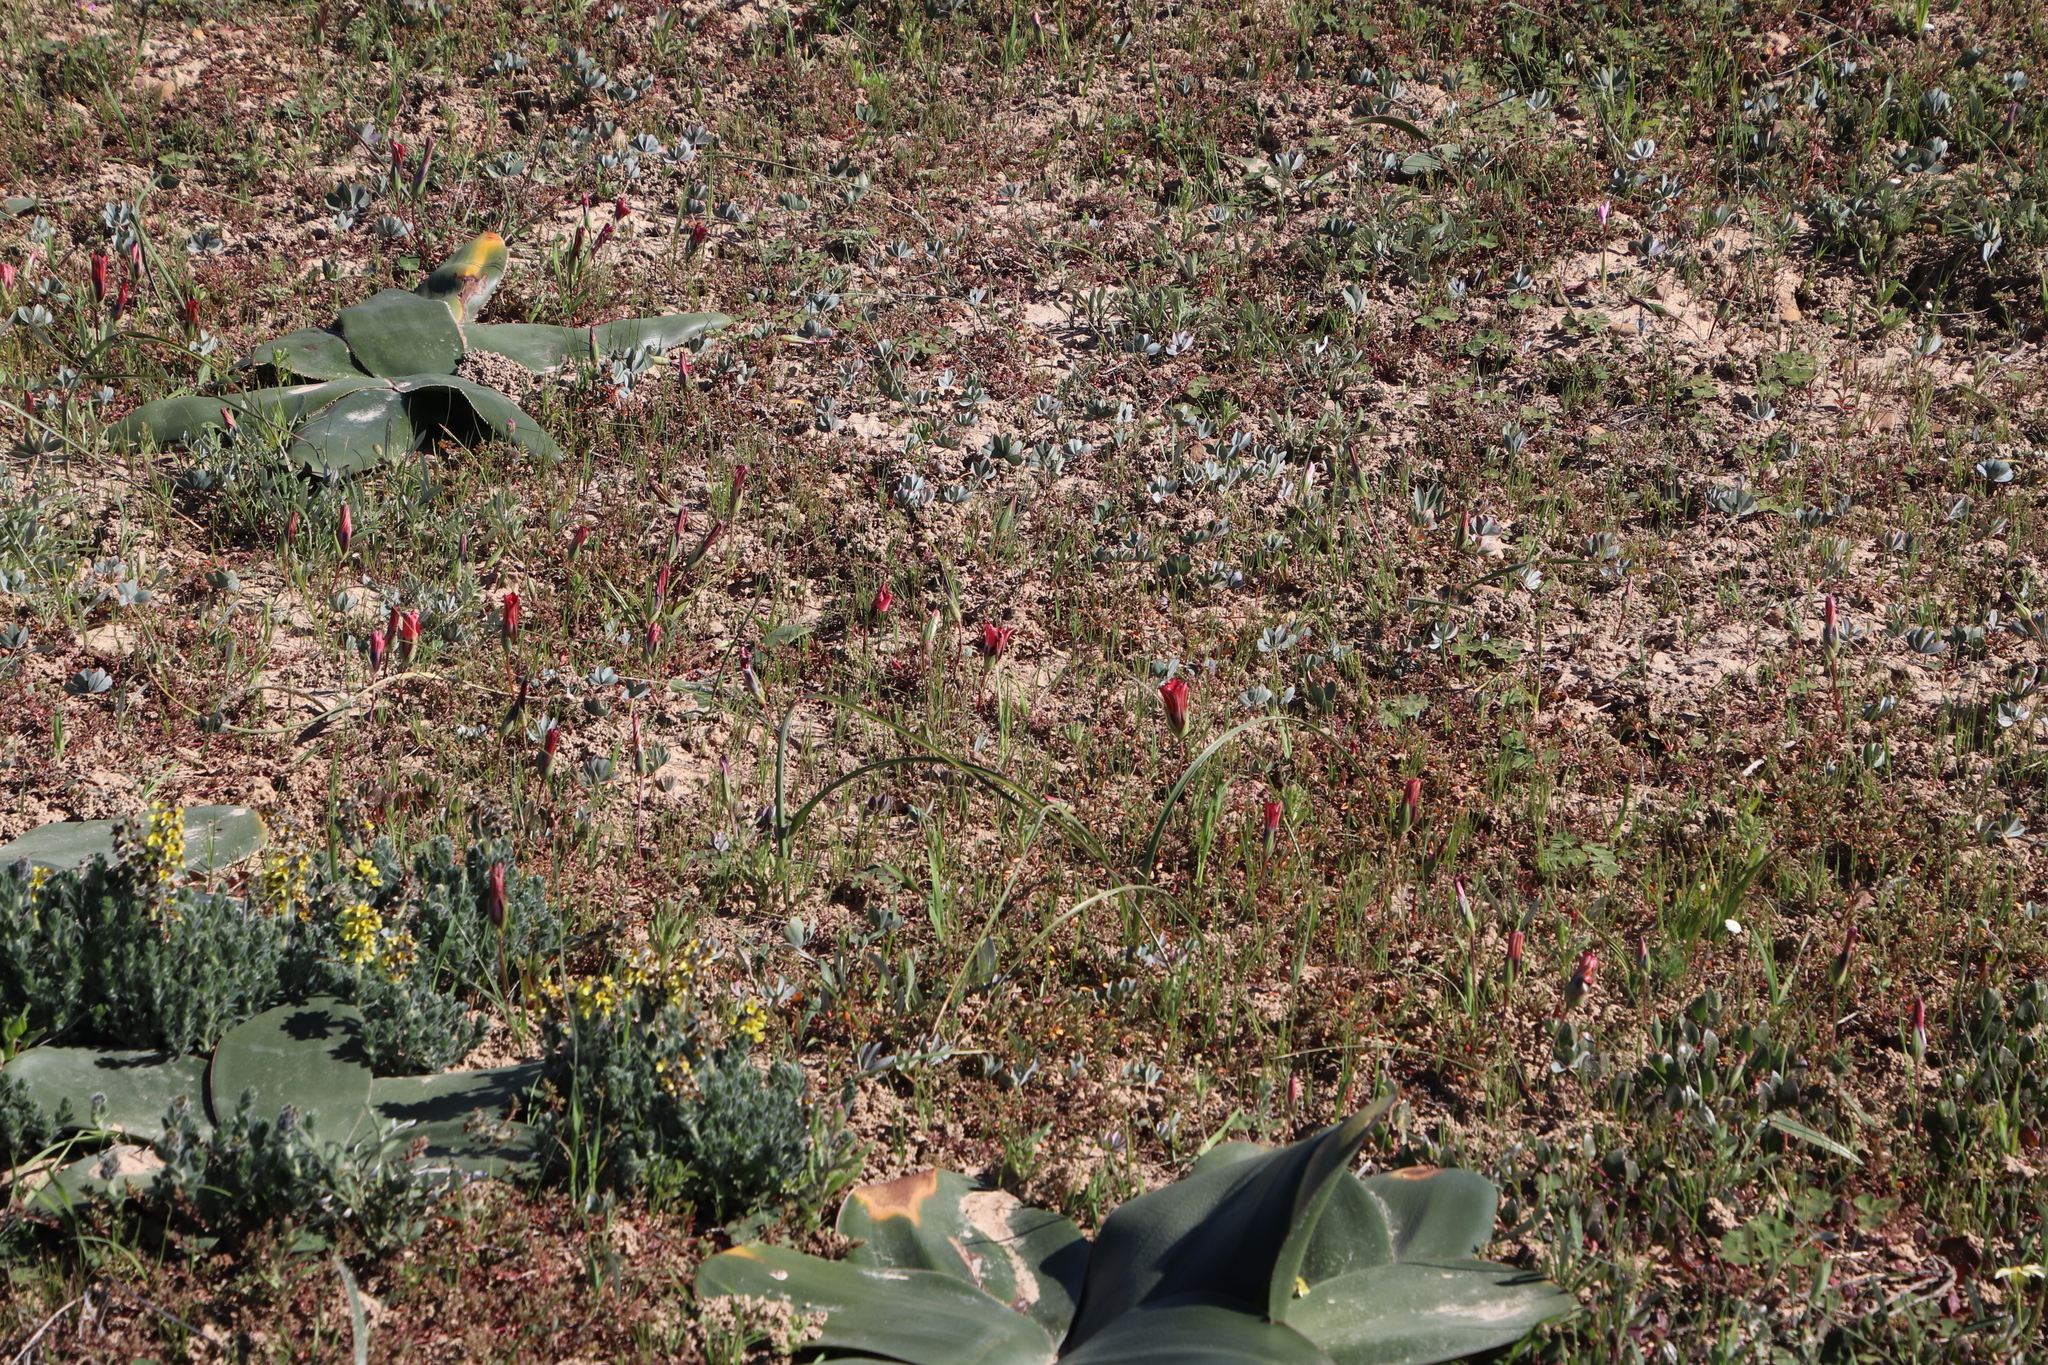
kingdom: Plantae
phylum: Tracheophyta
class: Magnoliopsida
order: Oxalidales
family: Oxalidaceae
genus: Oxalis
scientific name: Oxalis flava
